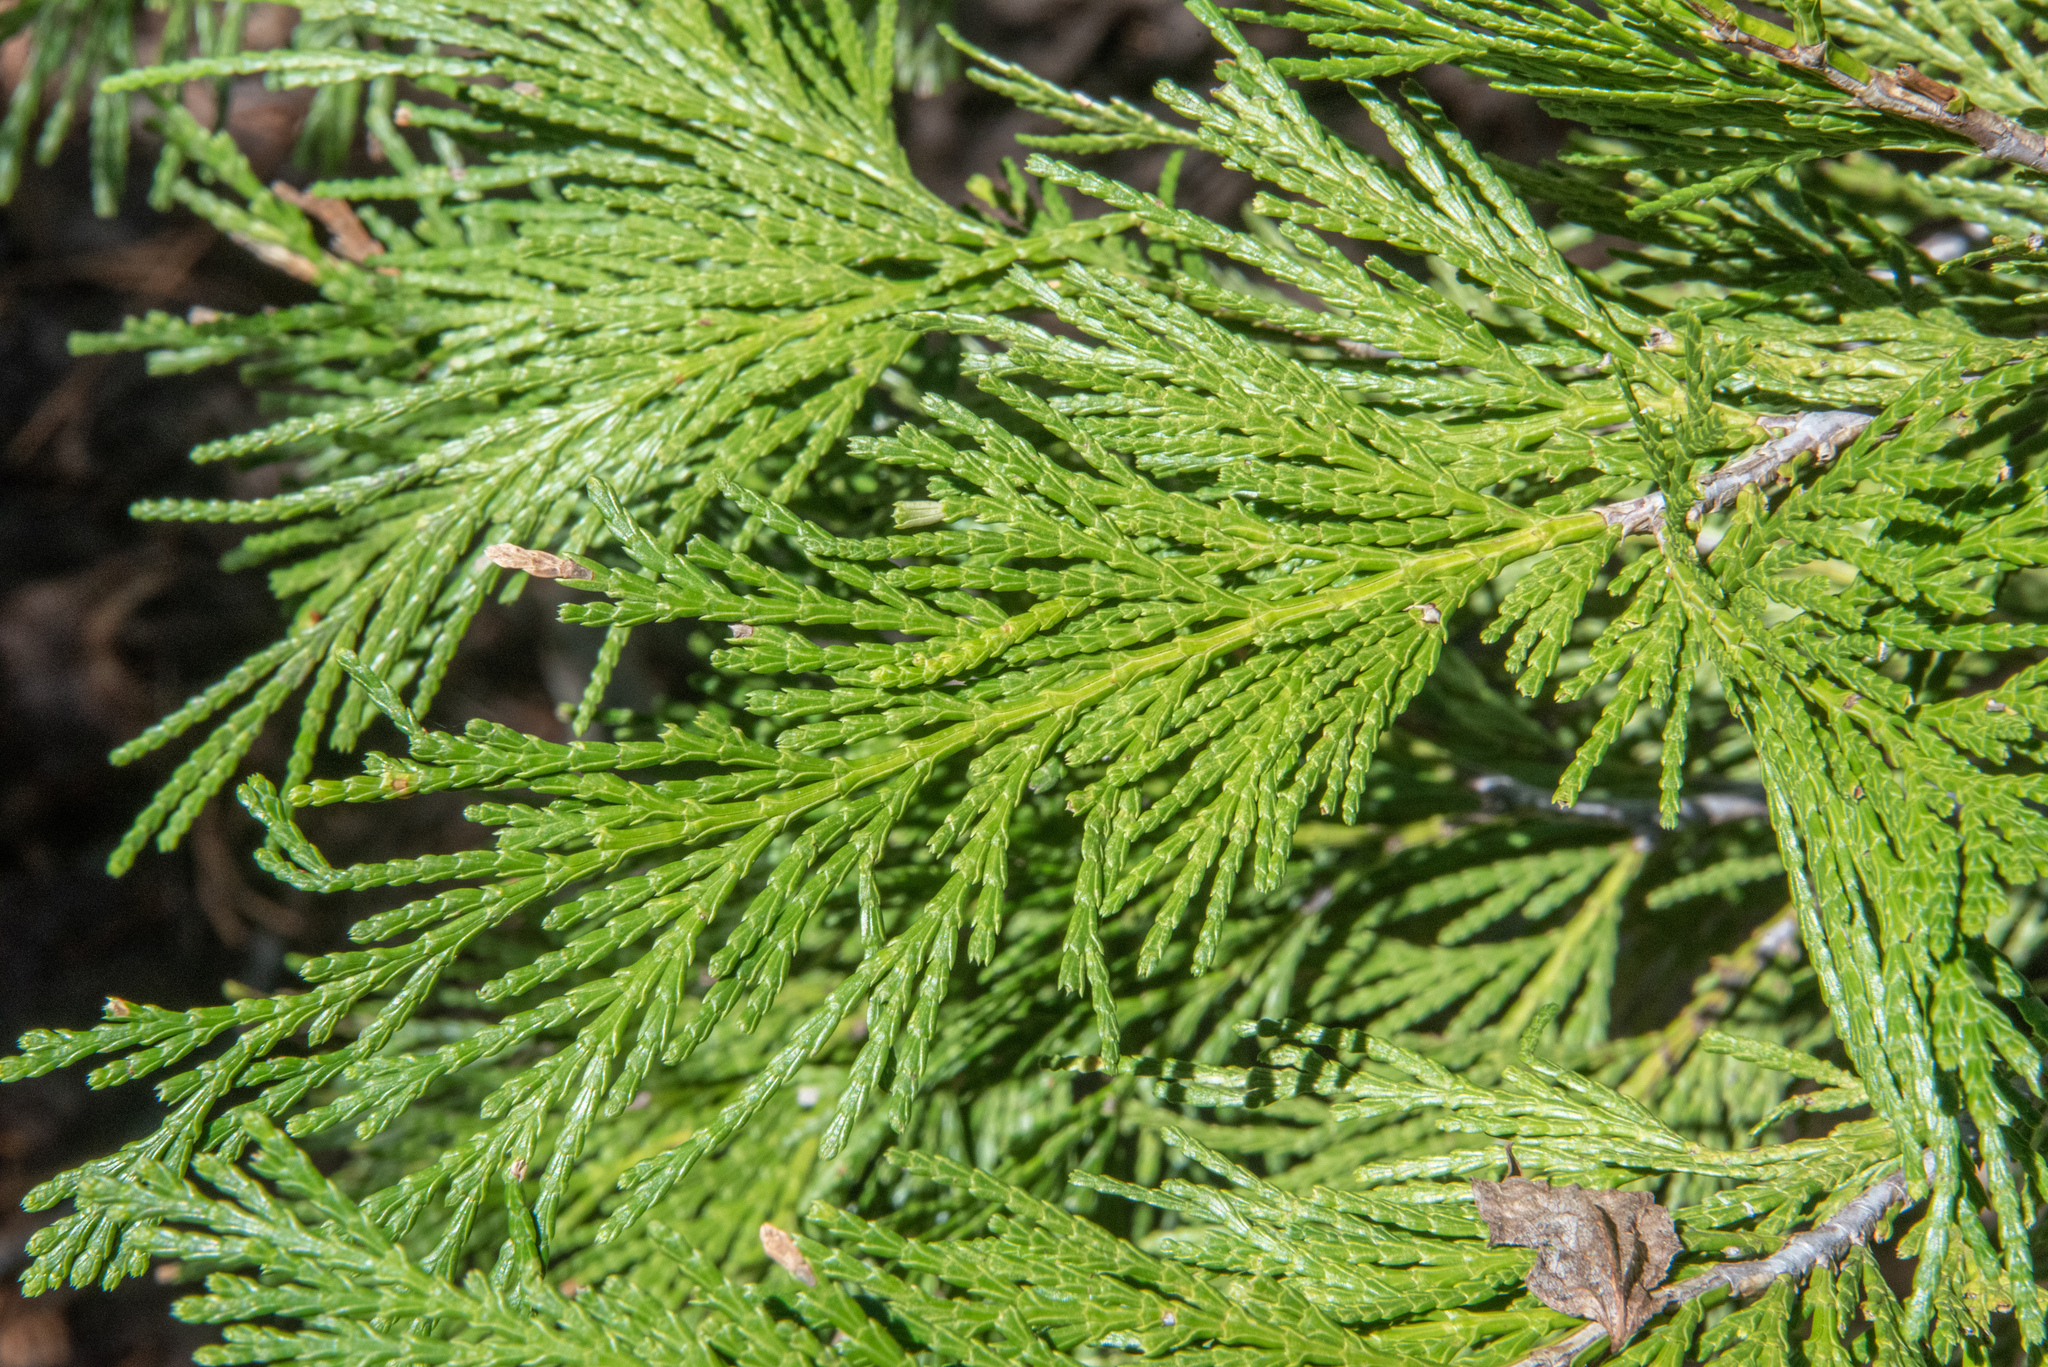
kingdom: Plantae
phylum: Tracheophyta
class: Pinopsida
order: Pinales
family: Cupressaceae
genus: Calocedrus
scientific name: Calocedrus decurrens
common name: Californian incense-cedar
